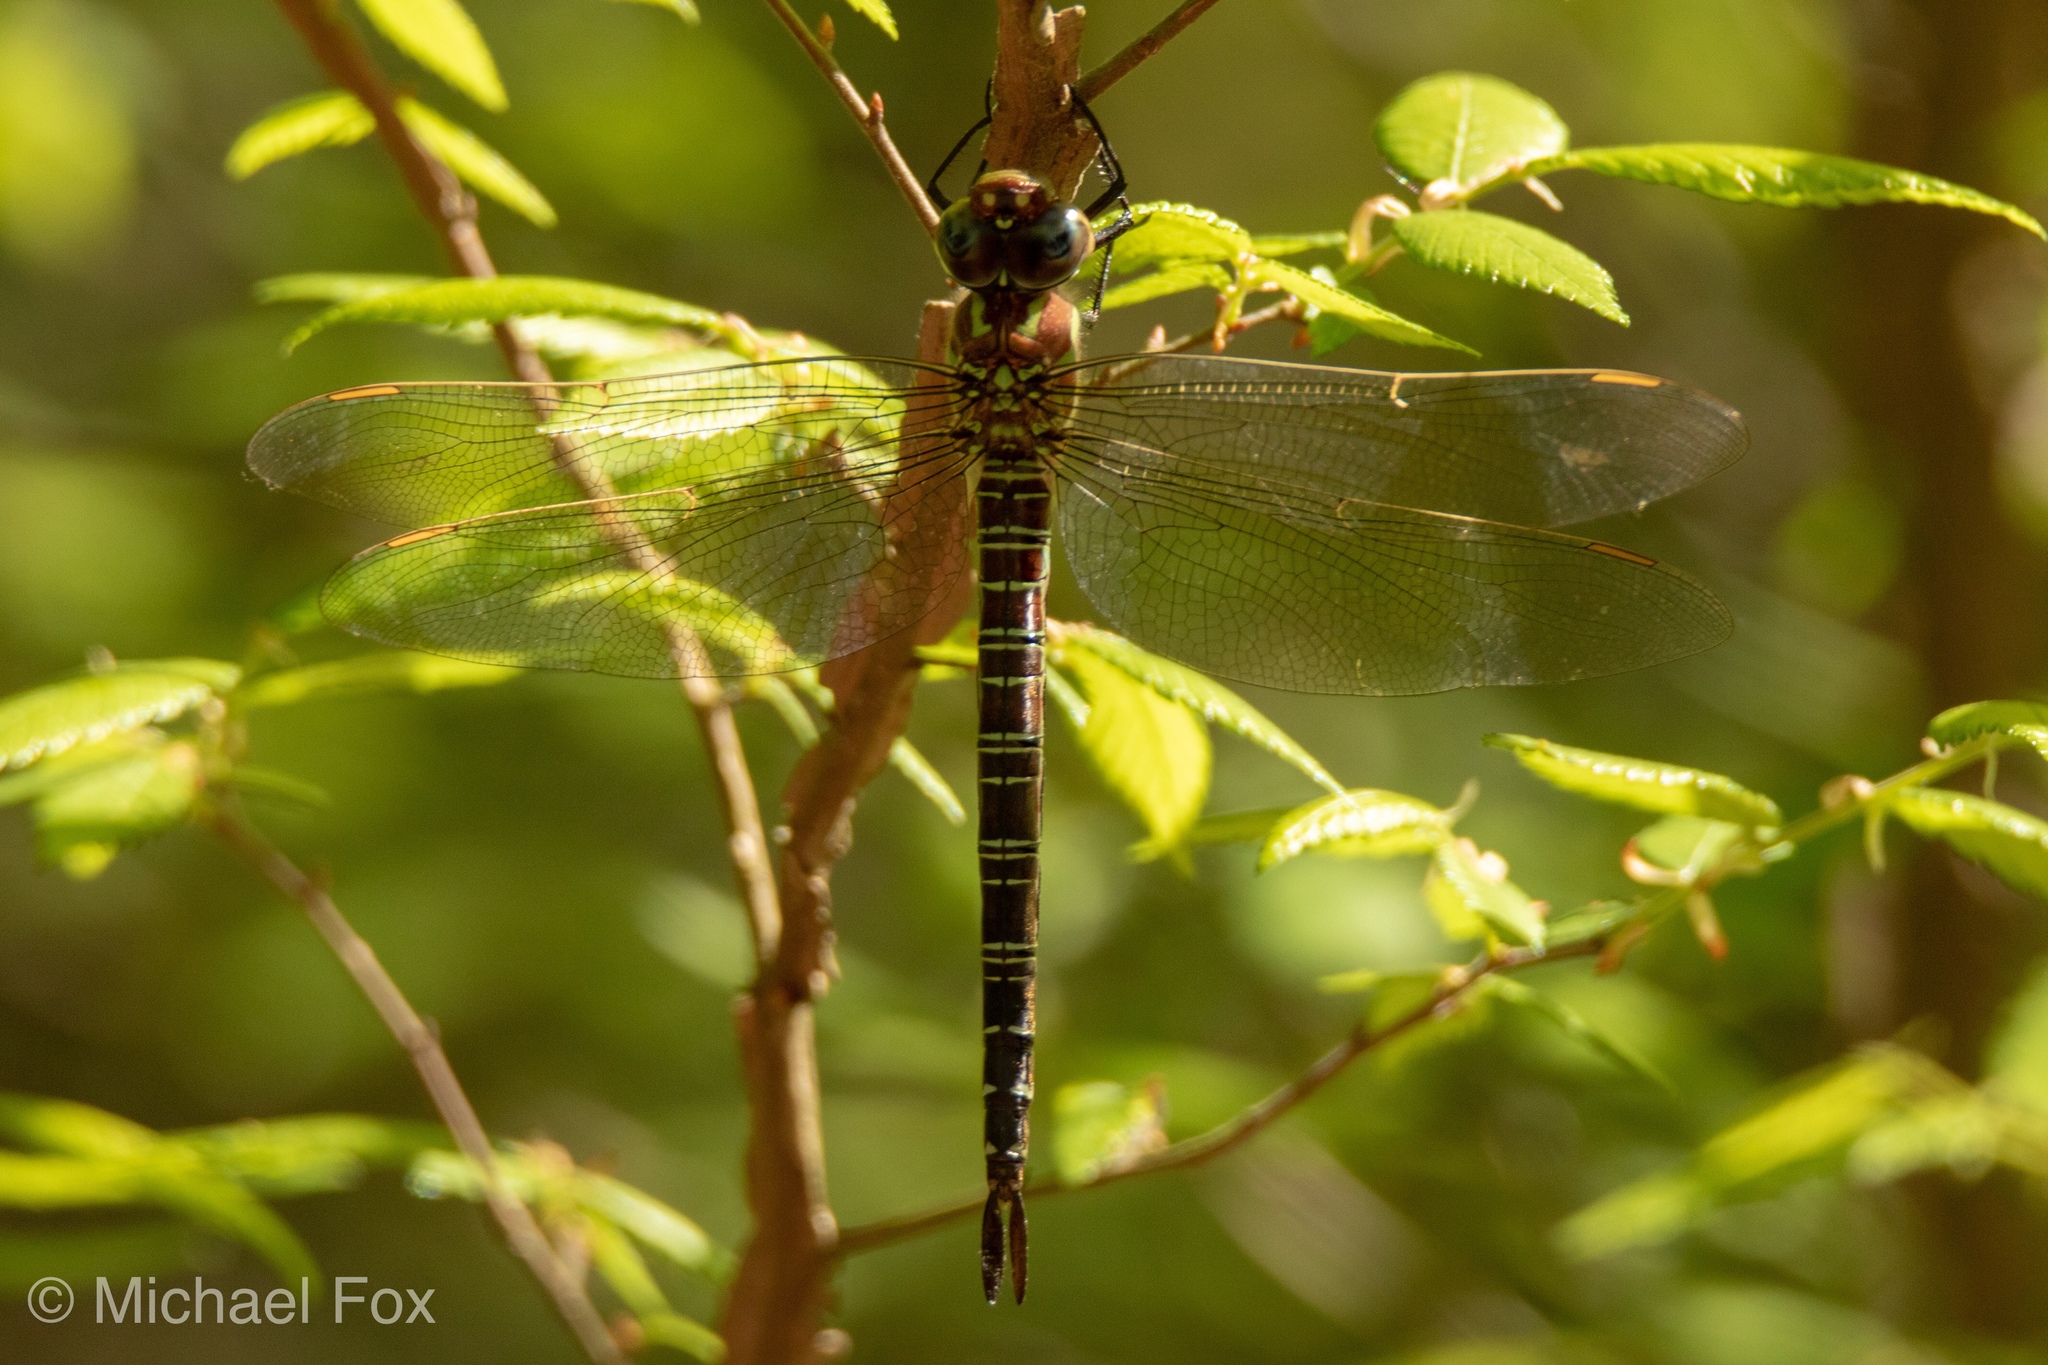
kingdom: Animalia
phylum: Arthropoda
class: Insecta
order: Odonata
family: Aeshnidae
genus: Epiaeschna
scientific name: Epiaeschna heros
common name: Swamp darner
